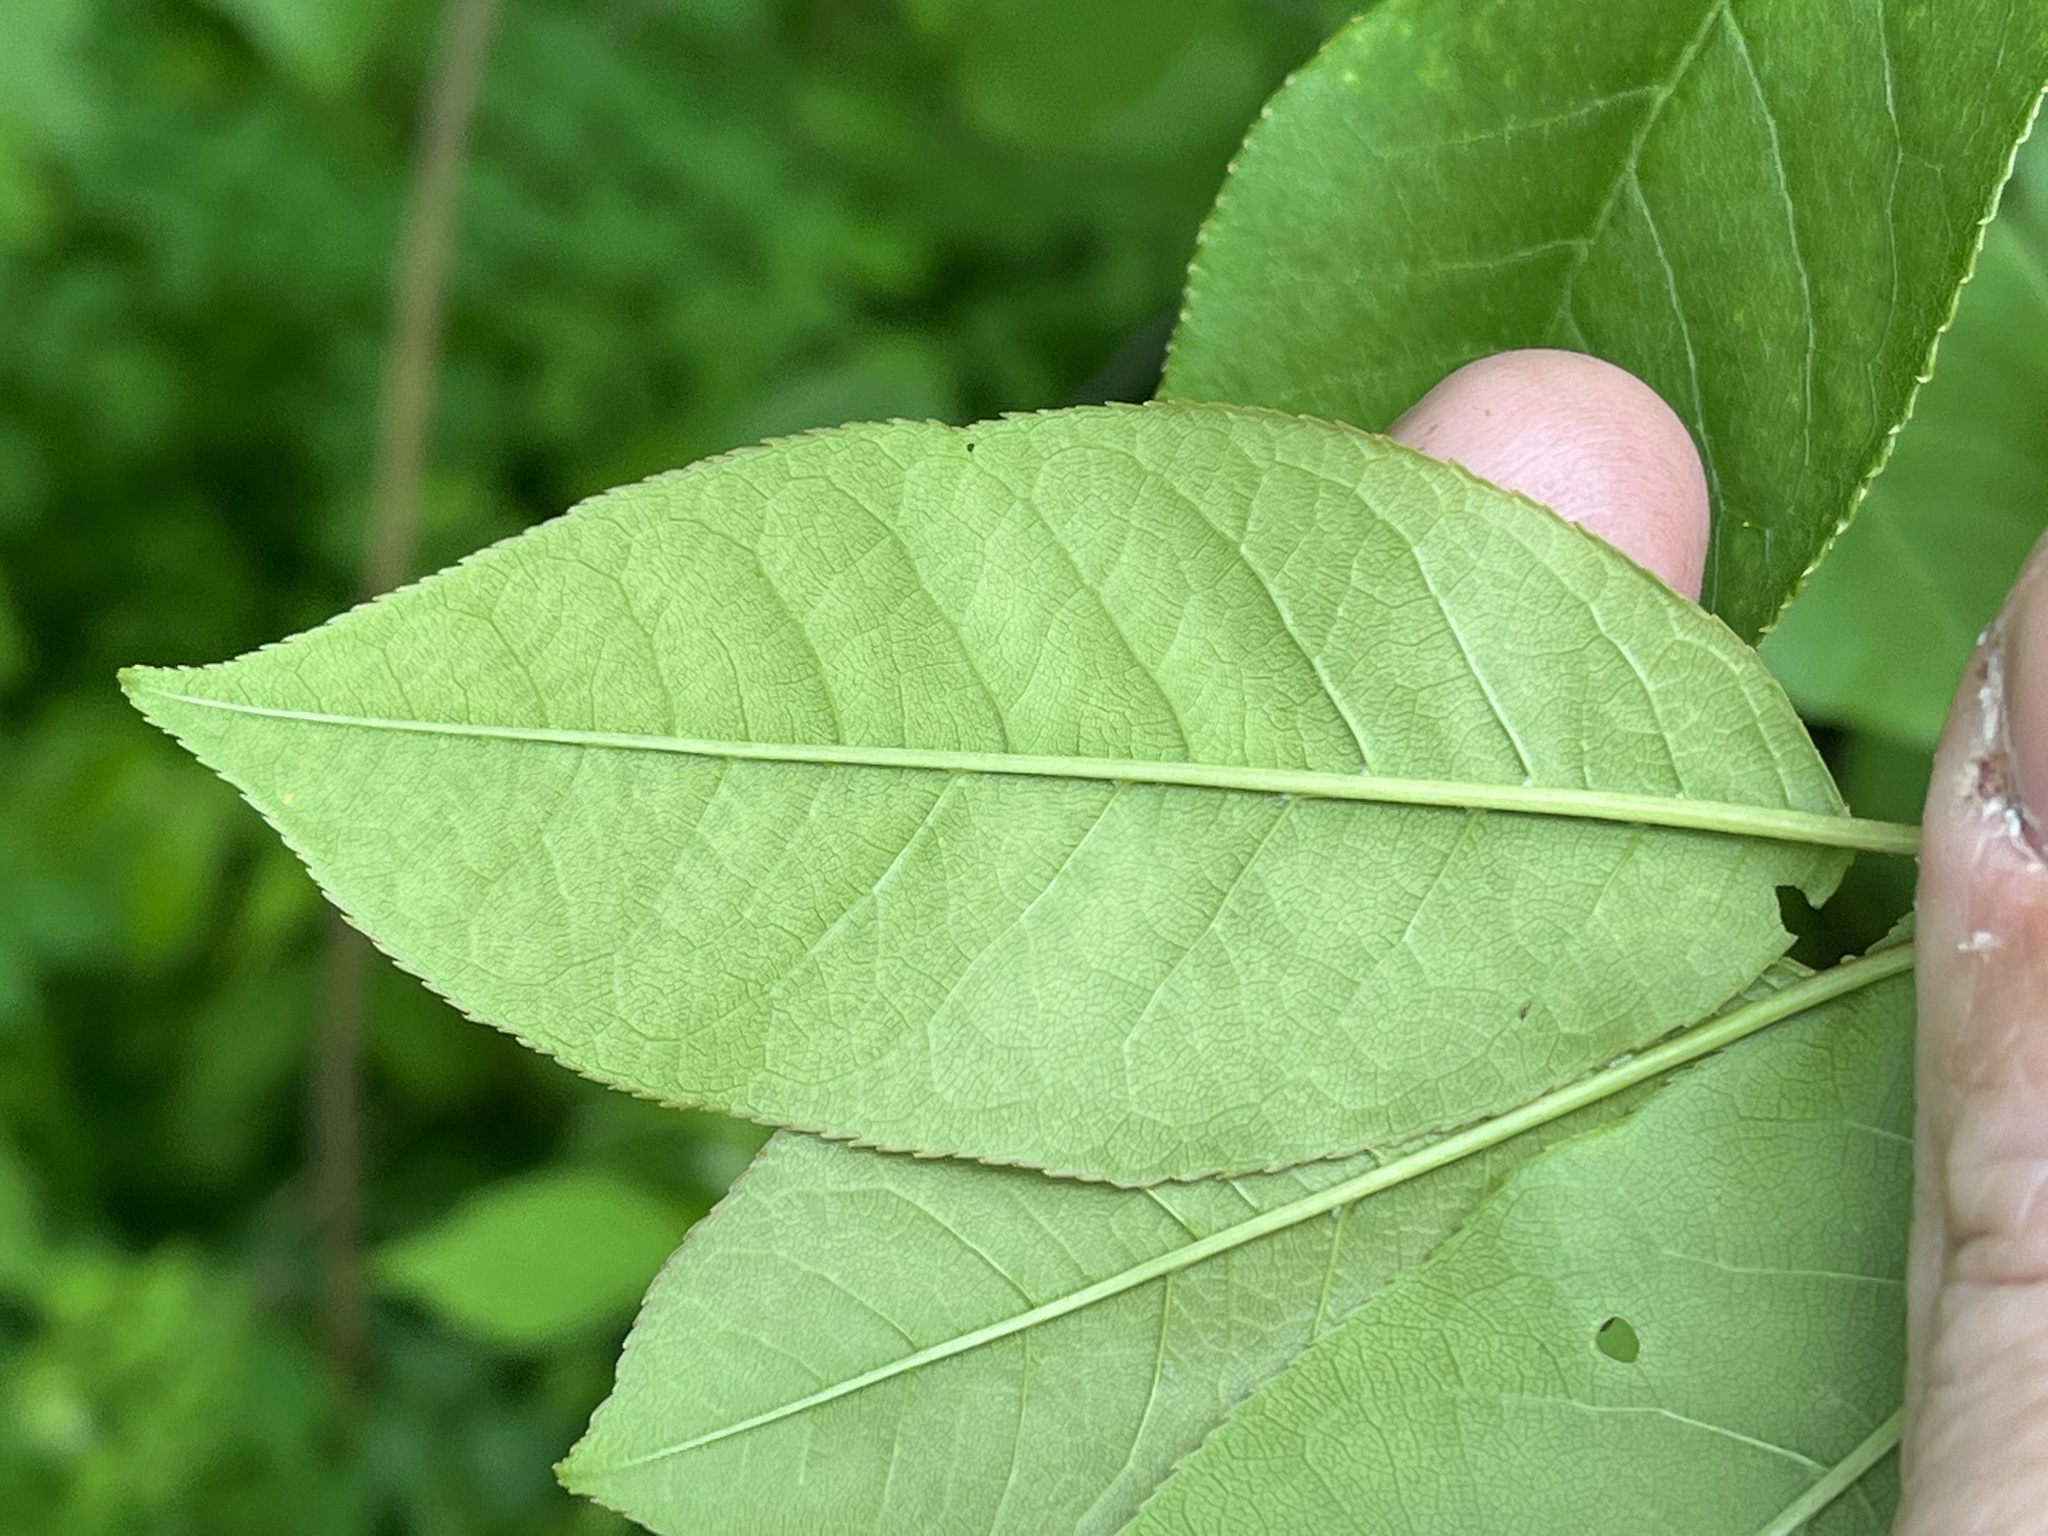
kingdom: Plantae
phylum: Tracheophyta
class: Magnoliopsida
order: Rosales
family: Rosaceae
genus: Prunus
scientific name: Prunus virginiana
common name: Chokecherry
